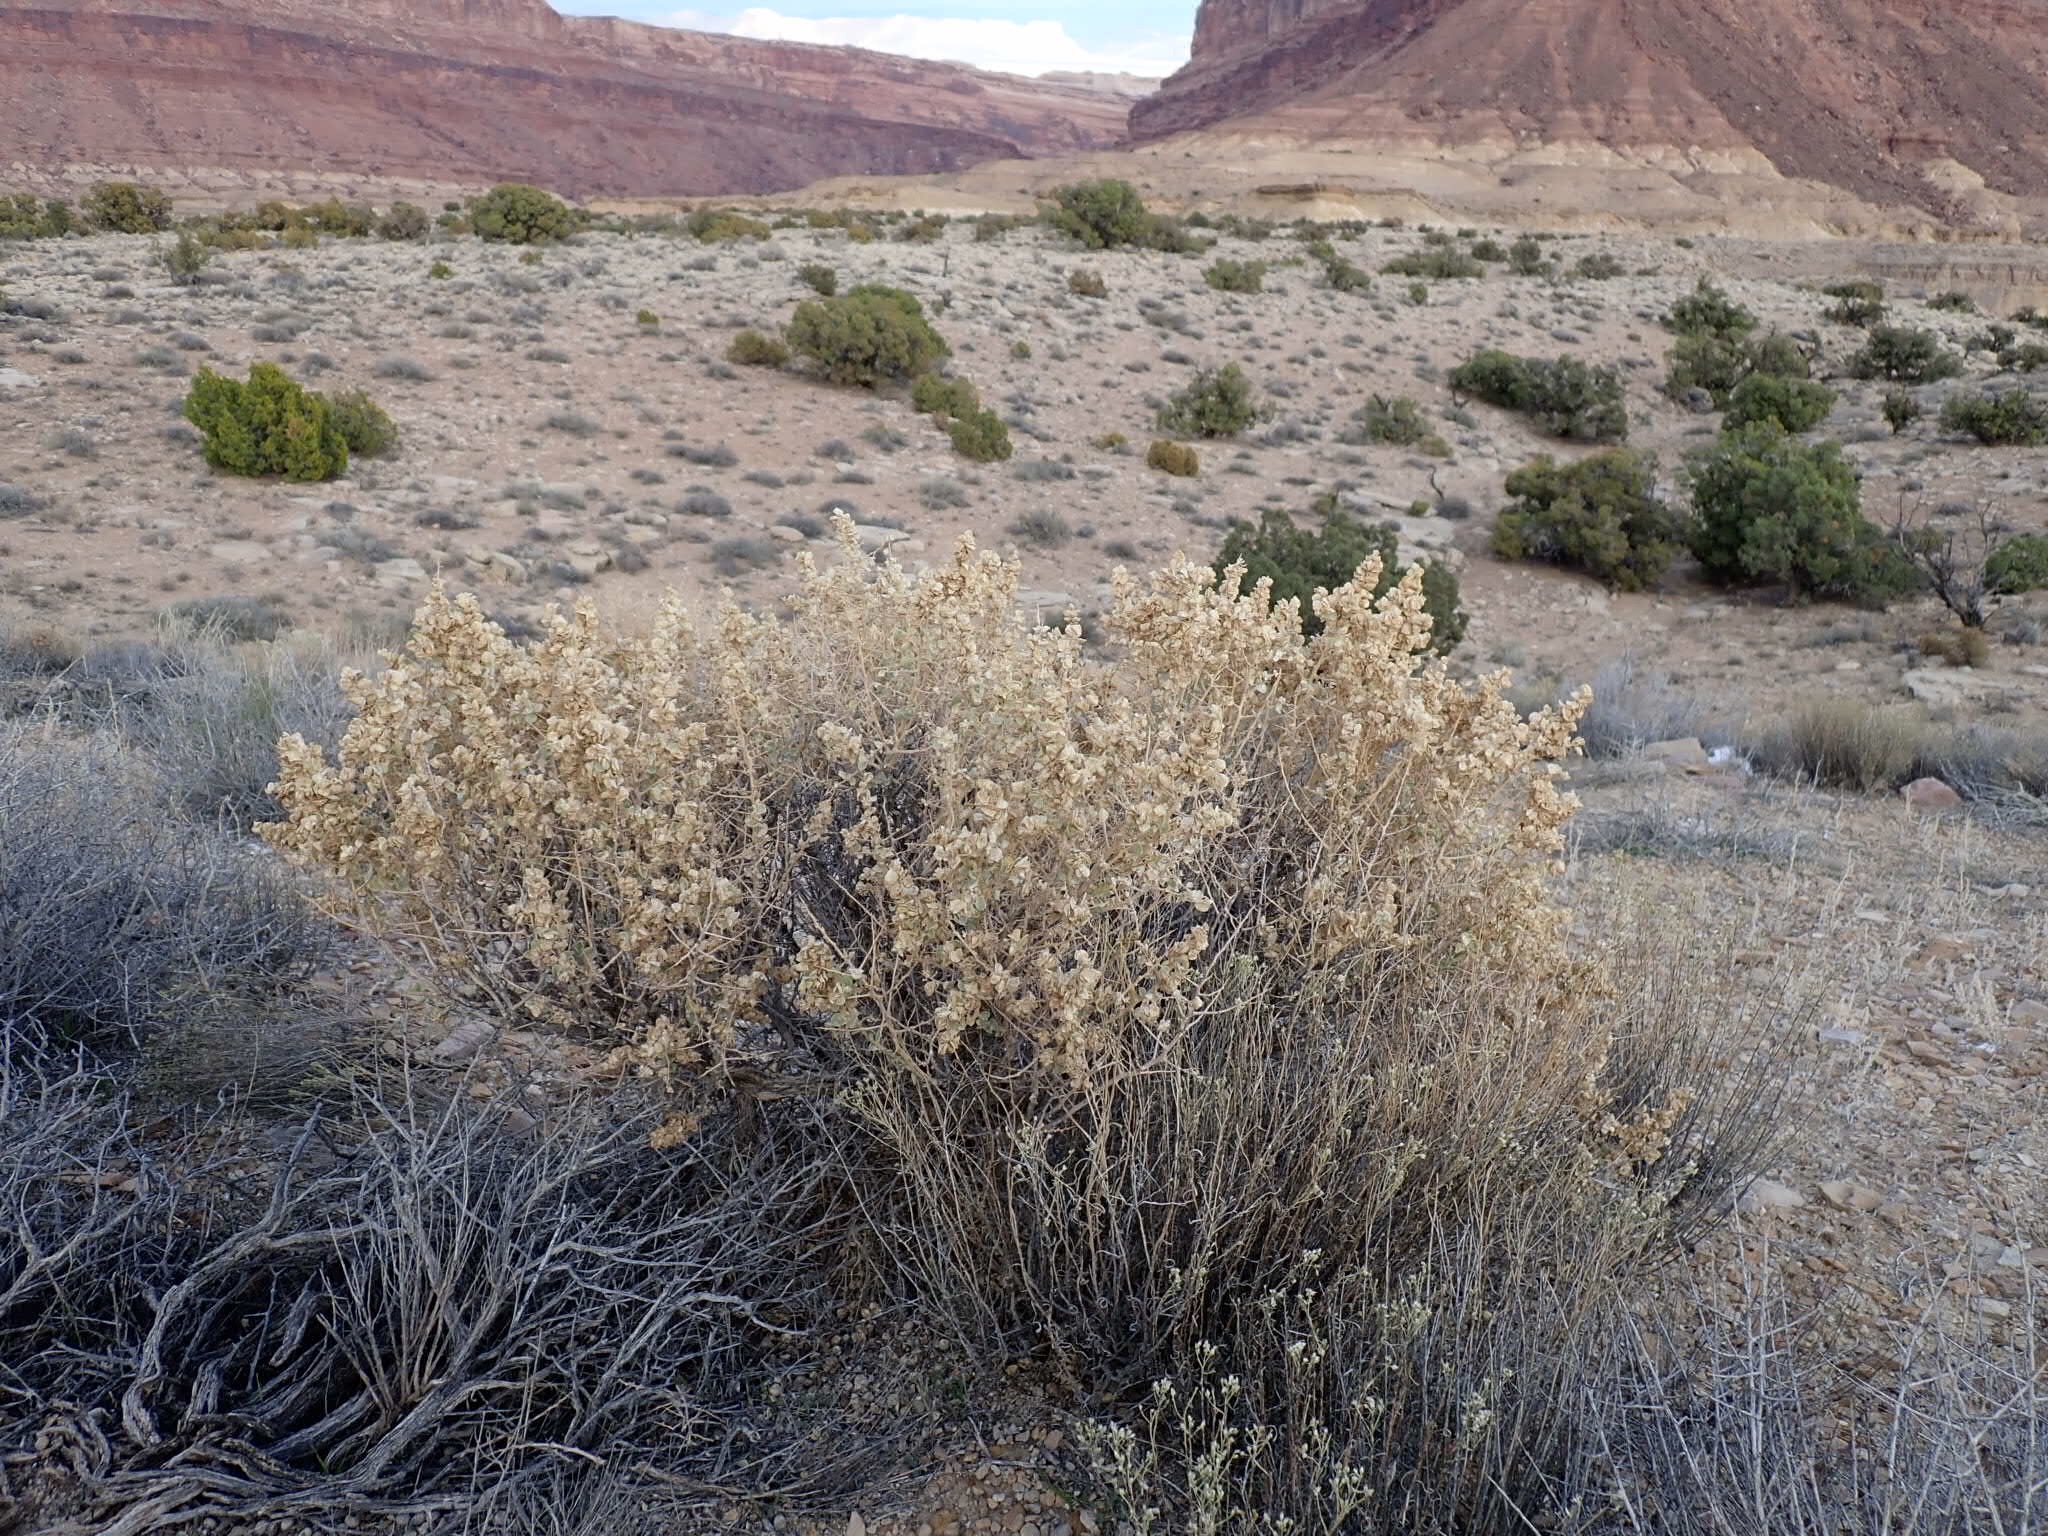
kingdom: Plantae
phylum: Tracheophyta
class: Magnoliopsida
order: Caryophyllales
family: Amaranthaceae
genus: Atriplex
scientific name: Atriplex canescens
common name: Four-wing saltbush
